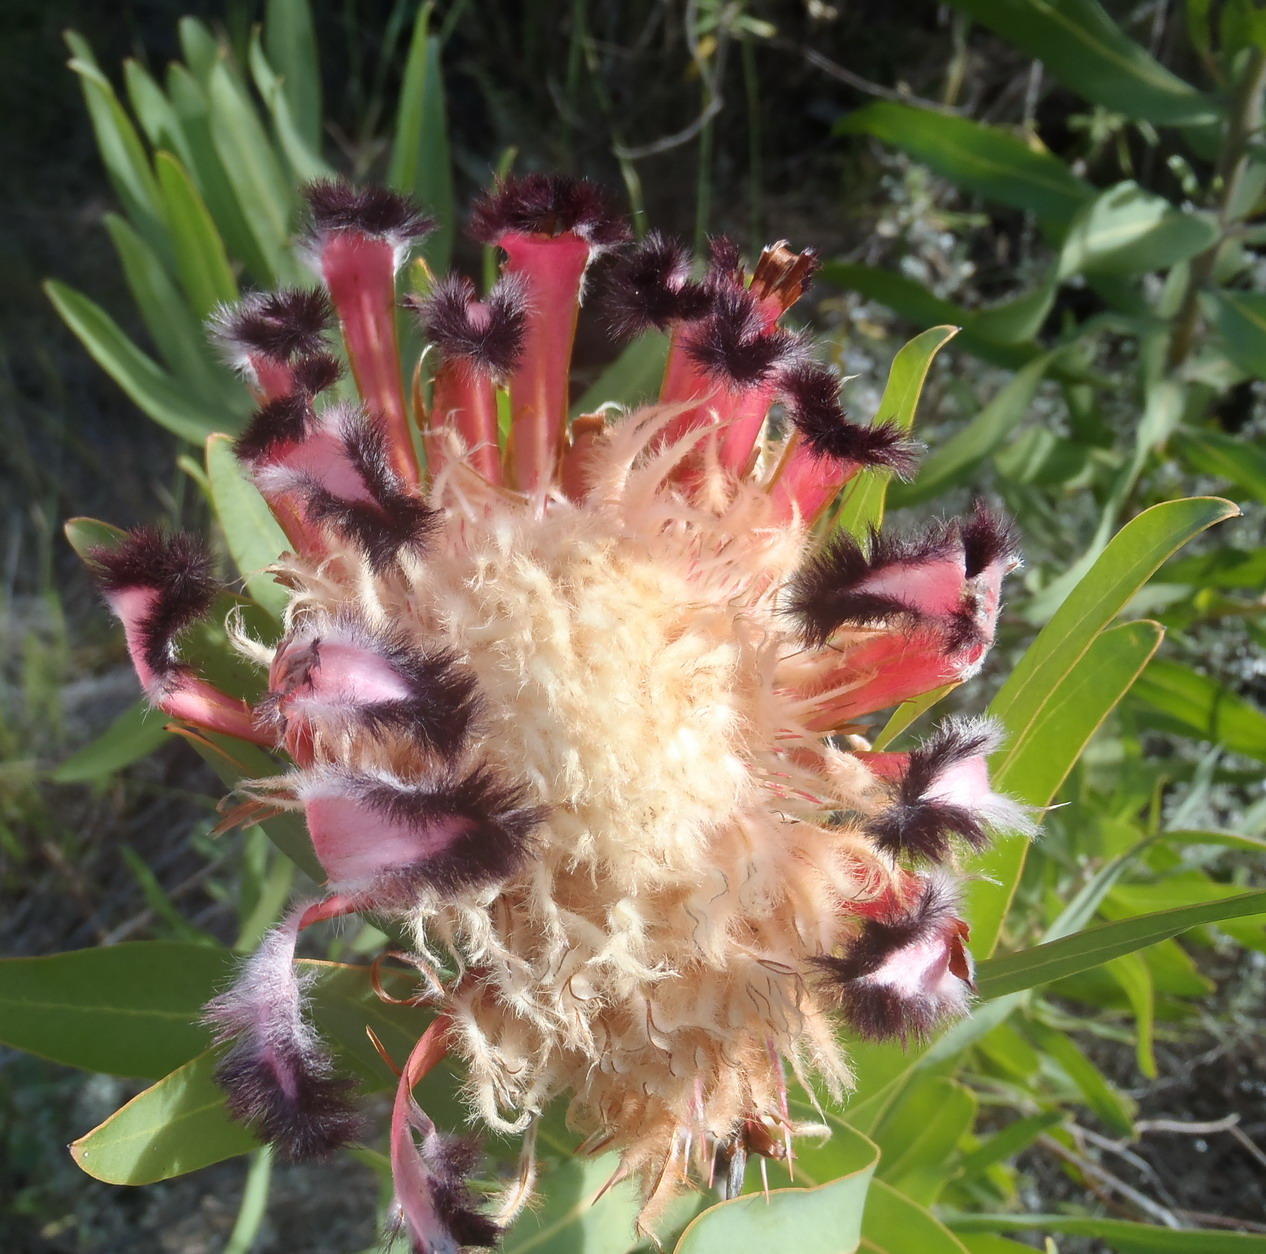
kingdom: Plantae
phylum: Tracheophyta
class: Magnoliopsida
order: Proteales
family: Proteaceae
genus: Protea
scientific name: Protea neriifolia
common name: Blue sugarbush
